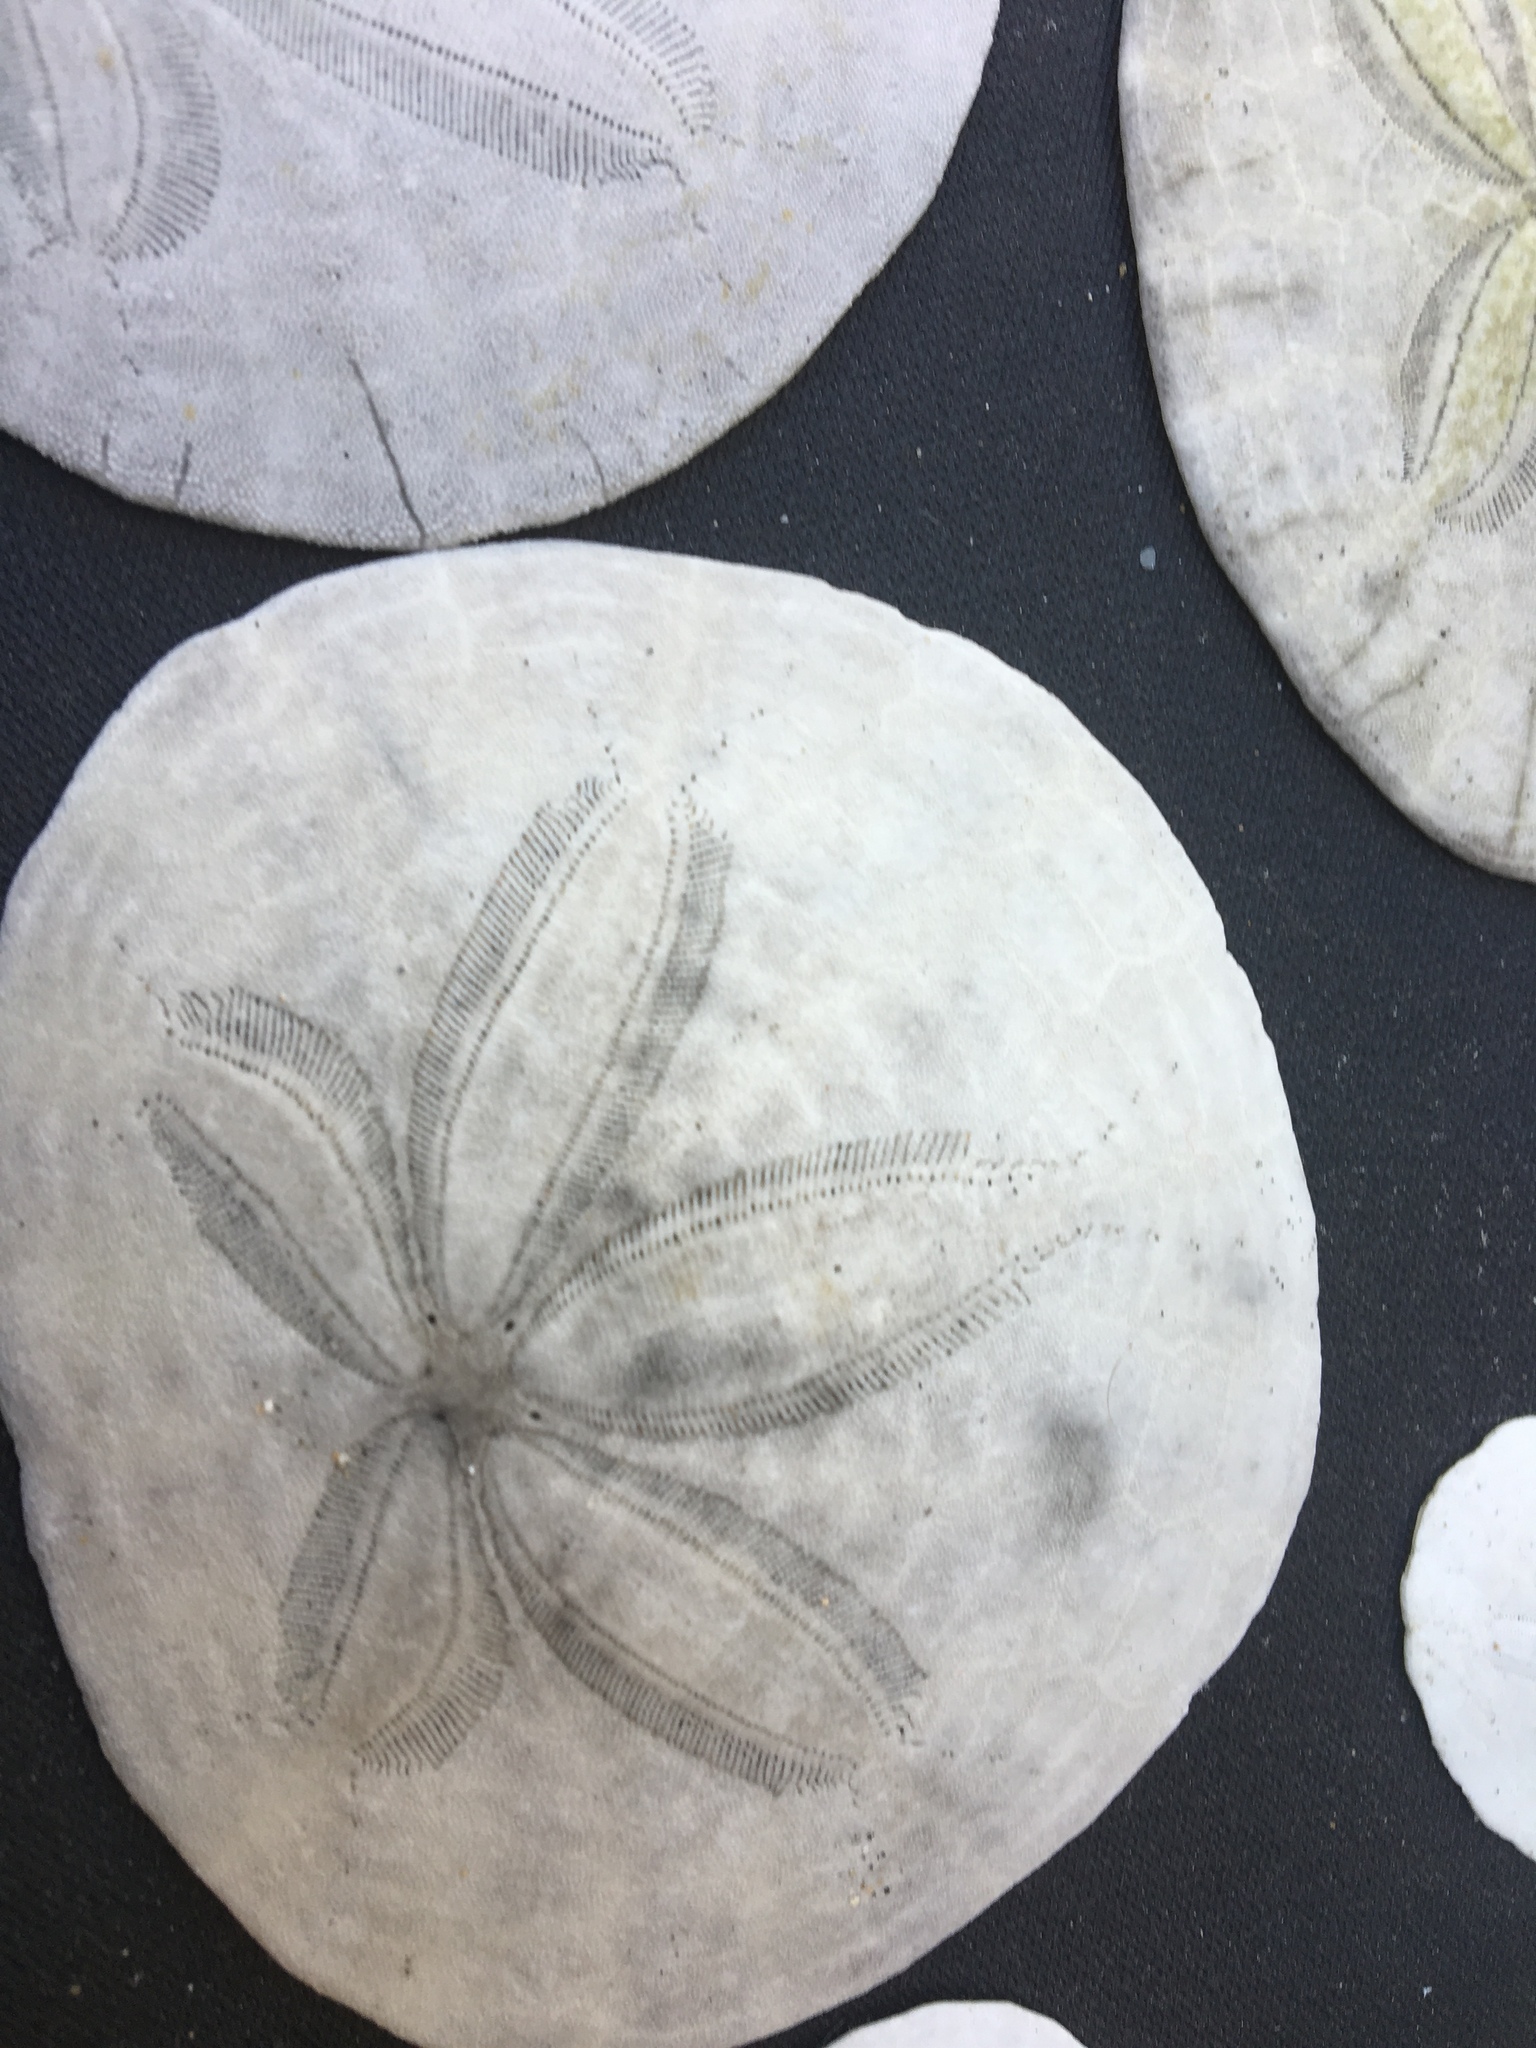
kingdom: Animalia
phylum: Echinodermata
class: Echinoidea
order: Echinolampadacea
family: Dendrasteridae
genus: Dendraster
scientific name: Dendraster excentricus
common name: Eccentric sand dollar sea urchin
